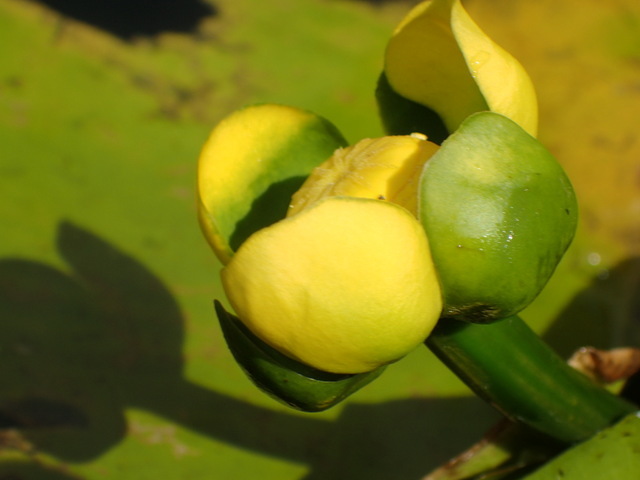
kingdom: Plantae
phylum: Tracheophyta
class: Magnoliopsida
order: Nymphaeales
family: Nymphaeaceae
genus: Nuphar
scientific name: Nuphar advena
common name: Spatter-dock
